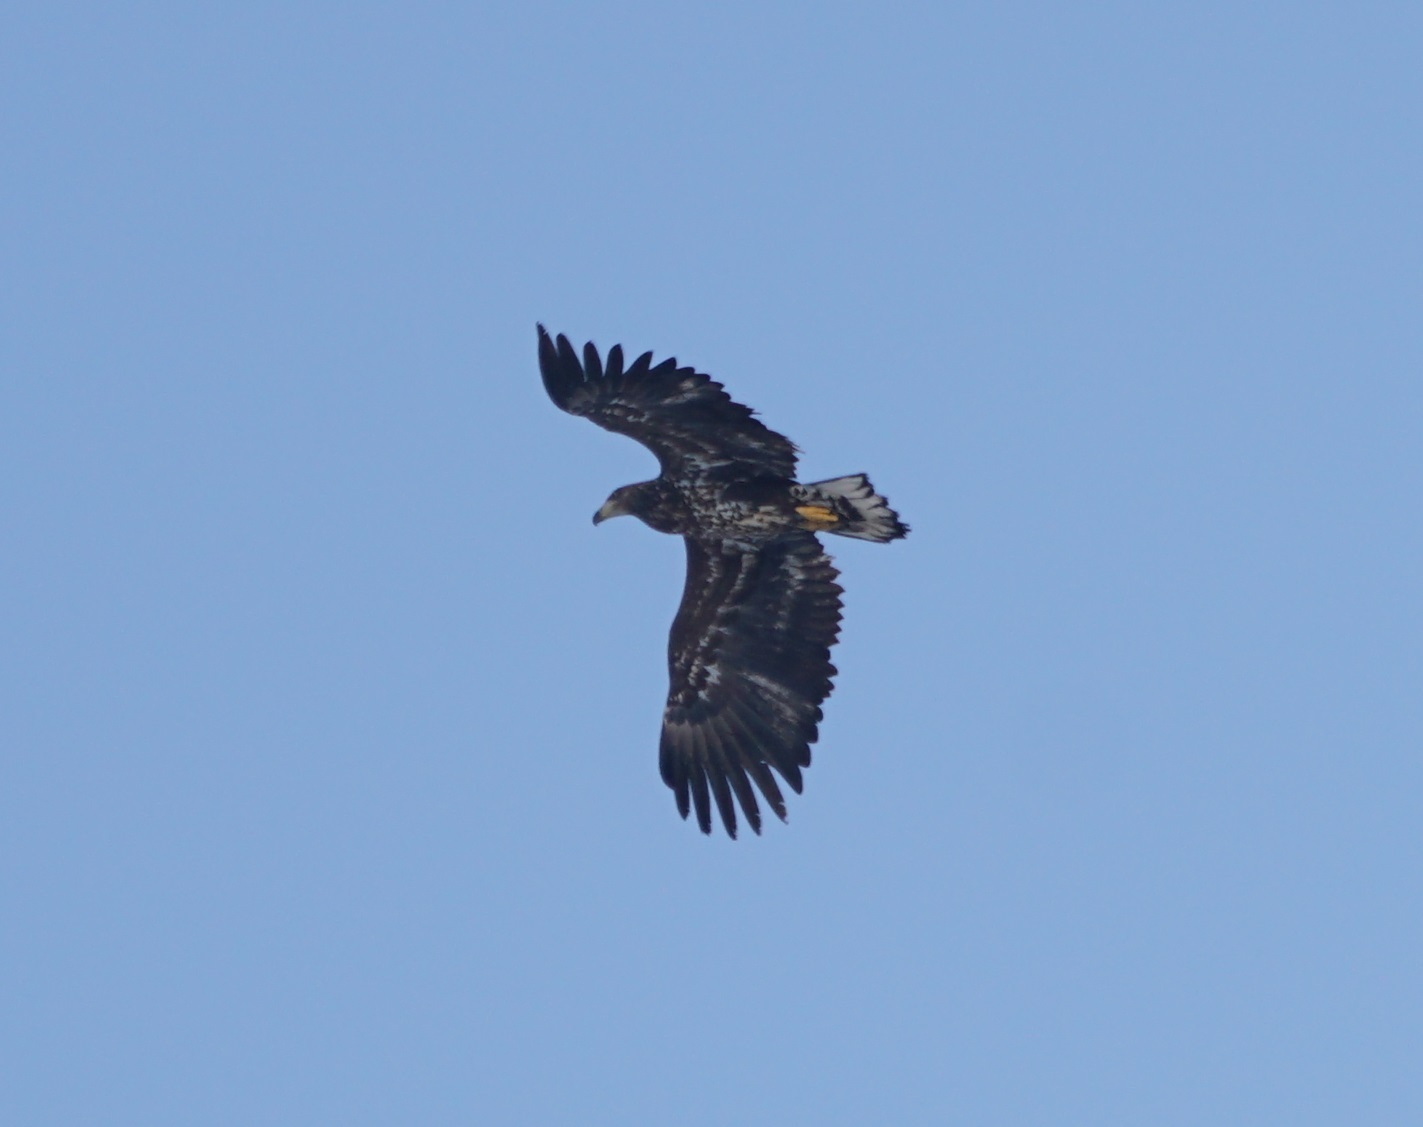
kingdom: Animalia
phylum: Chordata
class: Aves
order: Accipitriformes
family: Accipitridae
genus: Haliaeetus
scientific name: Haliaeetus albicilla
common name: White-tailed eagle
